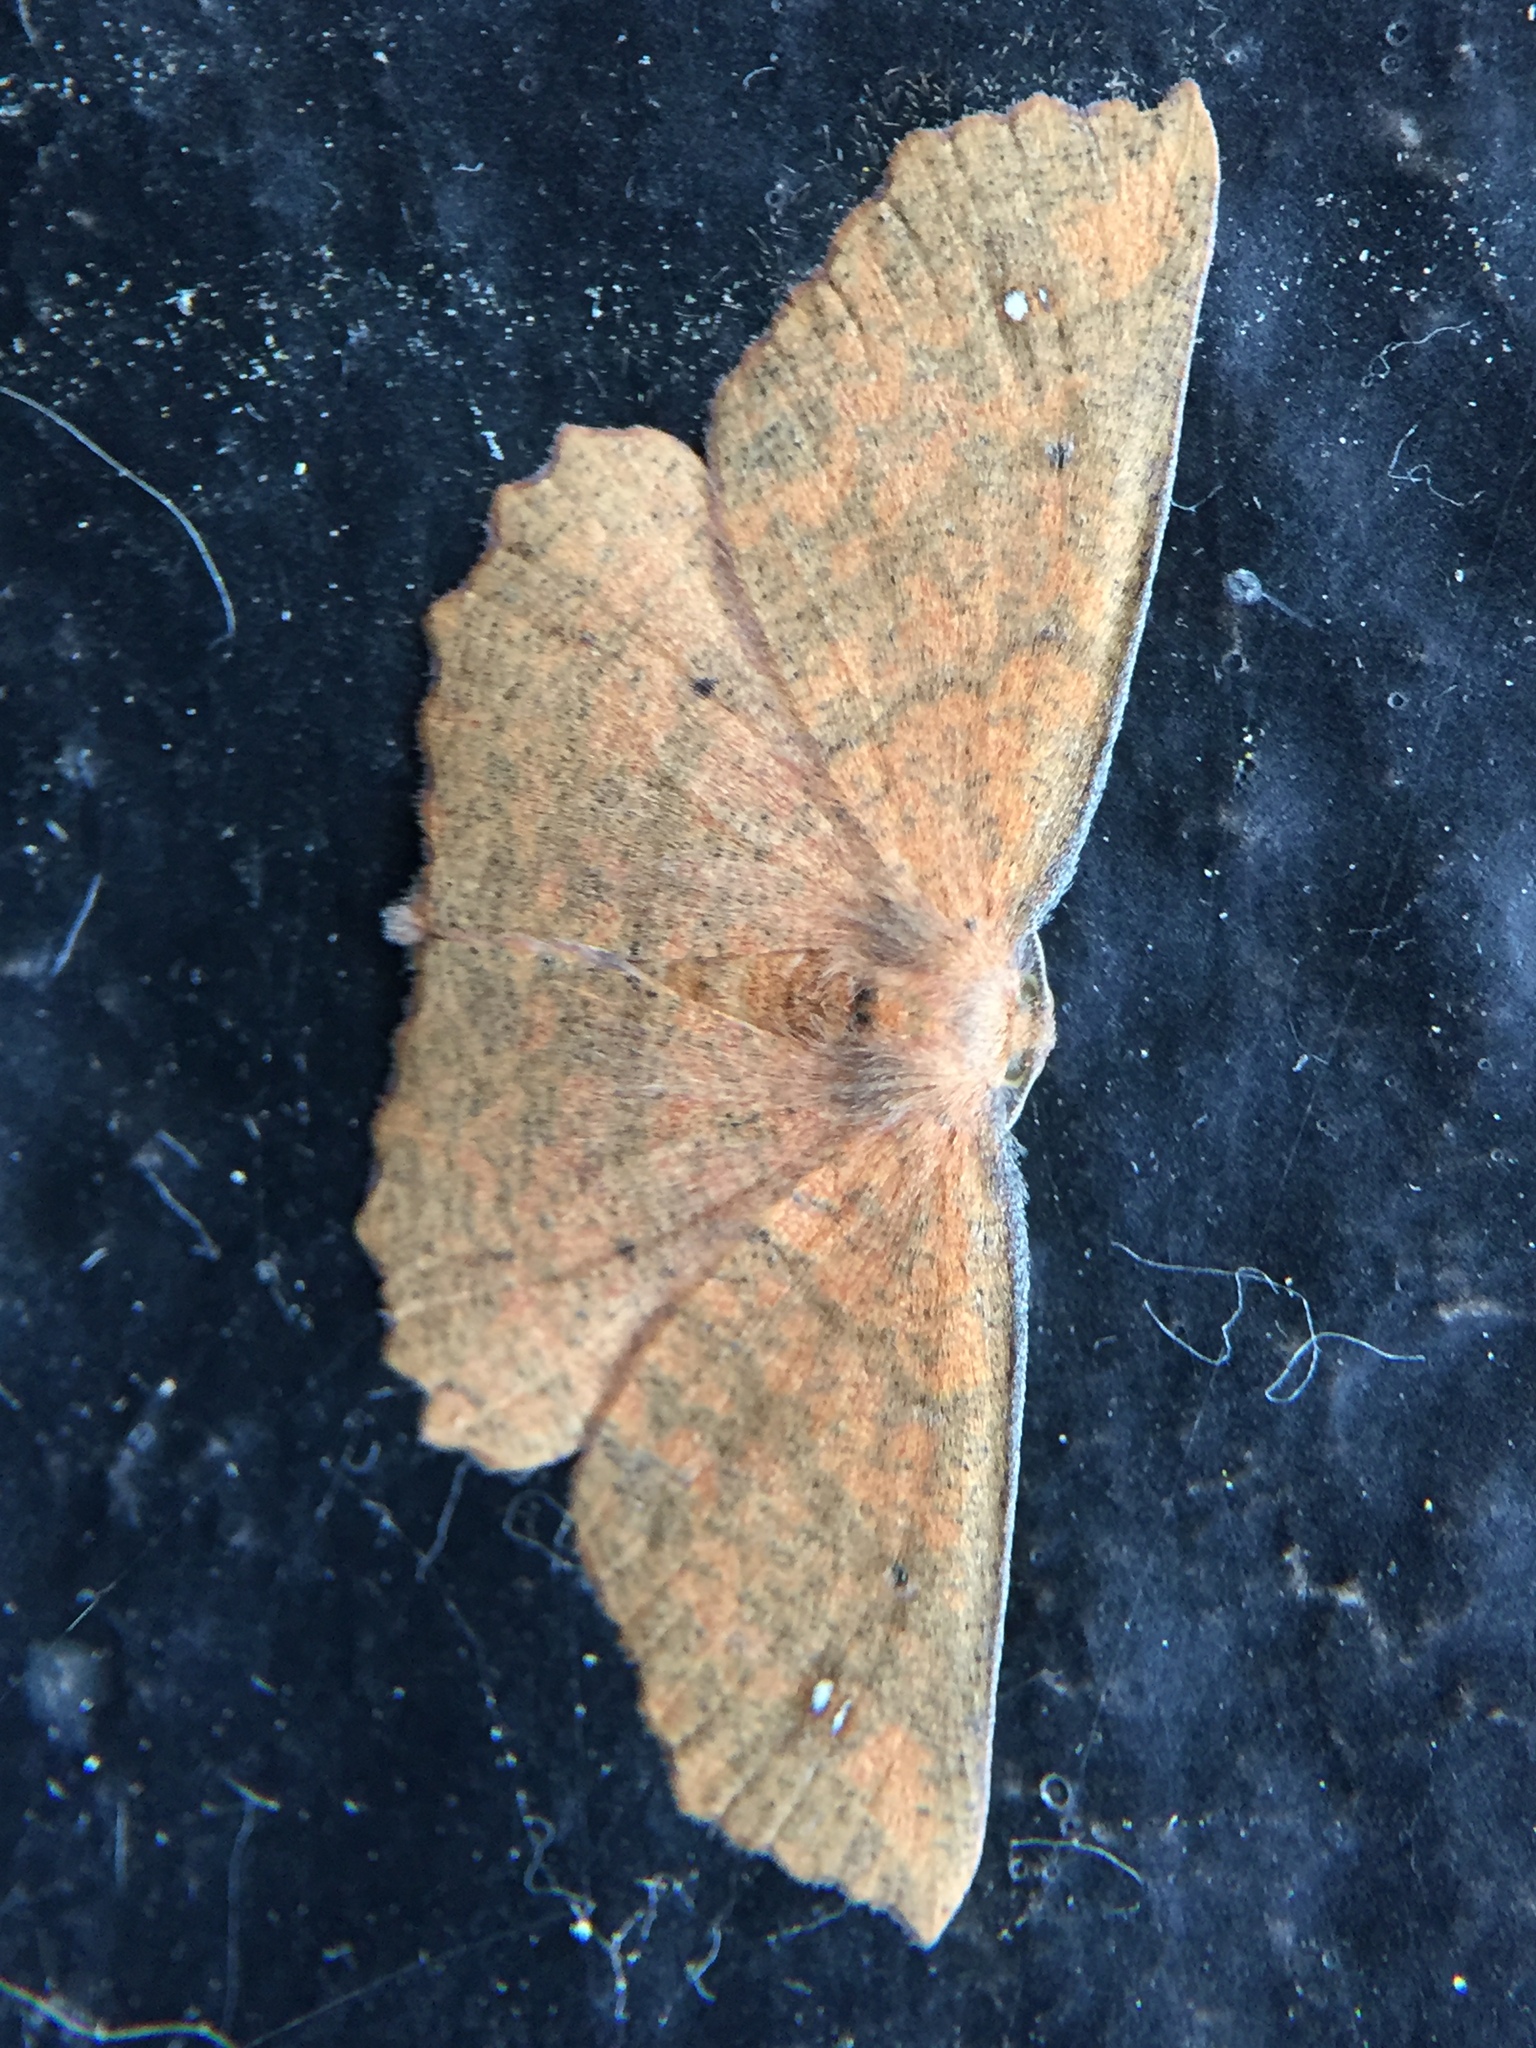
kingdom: Animalia
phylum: Arthropoda
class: Insecta
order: Lepidoptera
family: Geometridae
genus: Xyridacma
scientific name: Xyridacma ustaria
